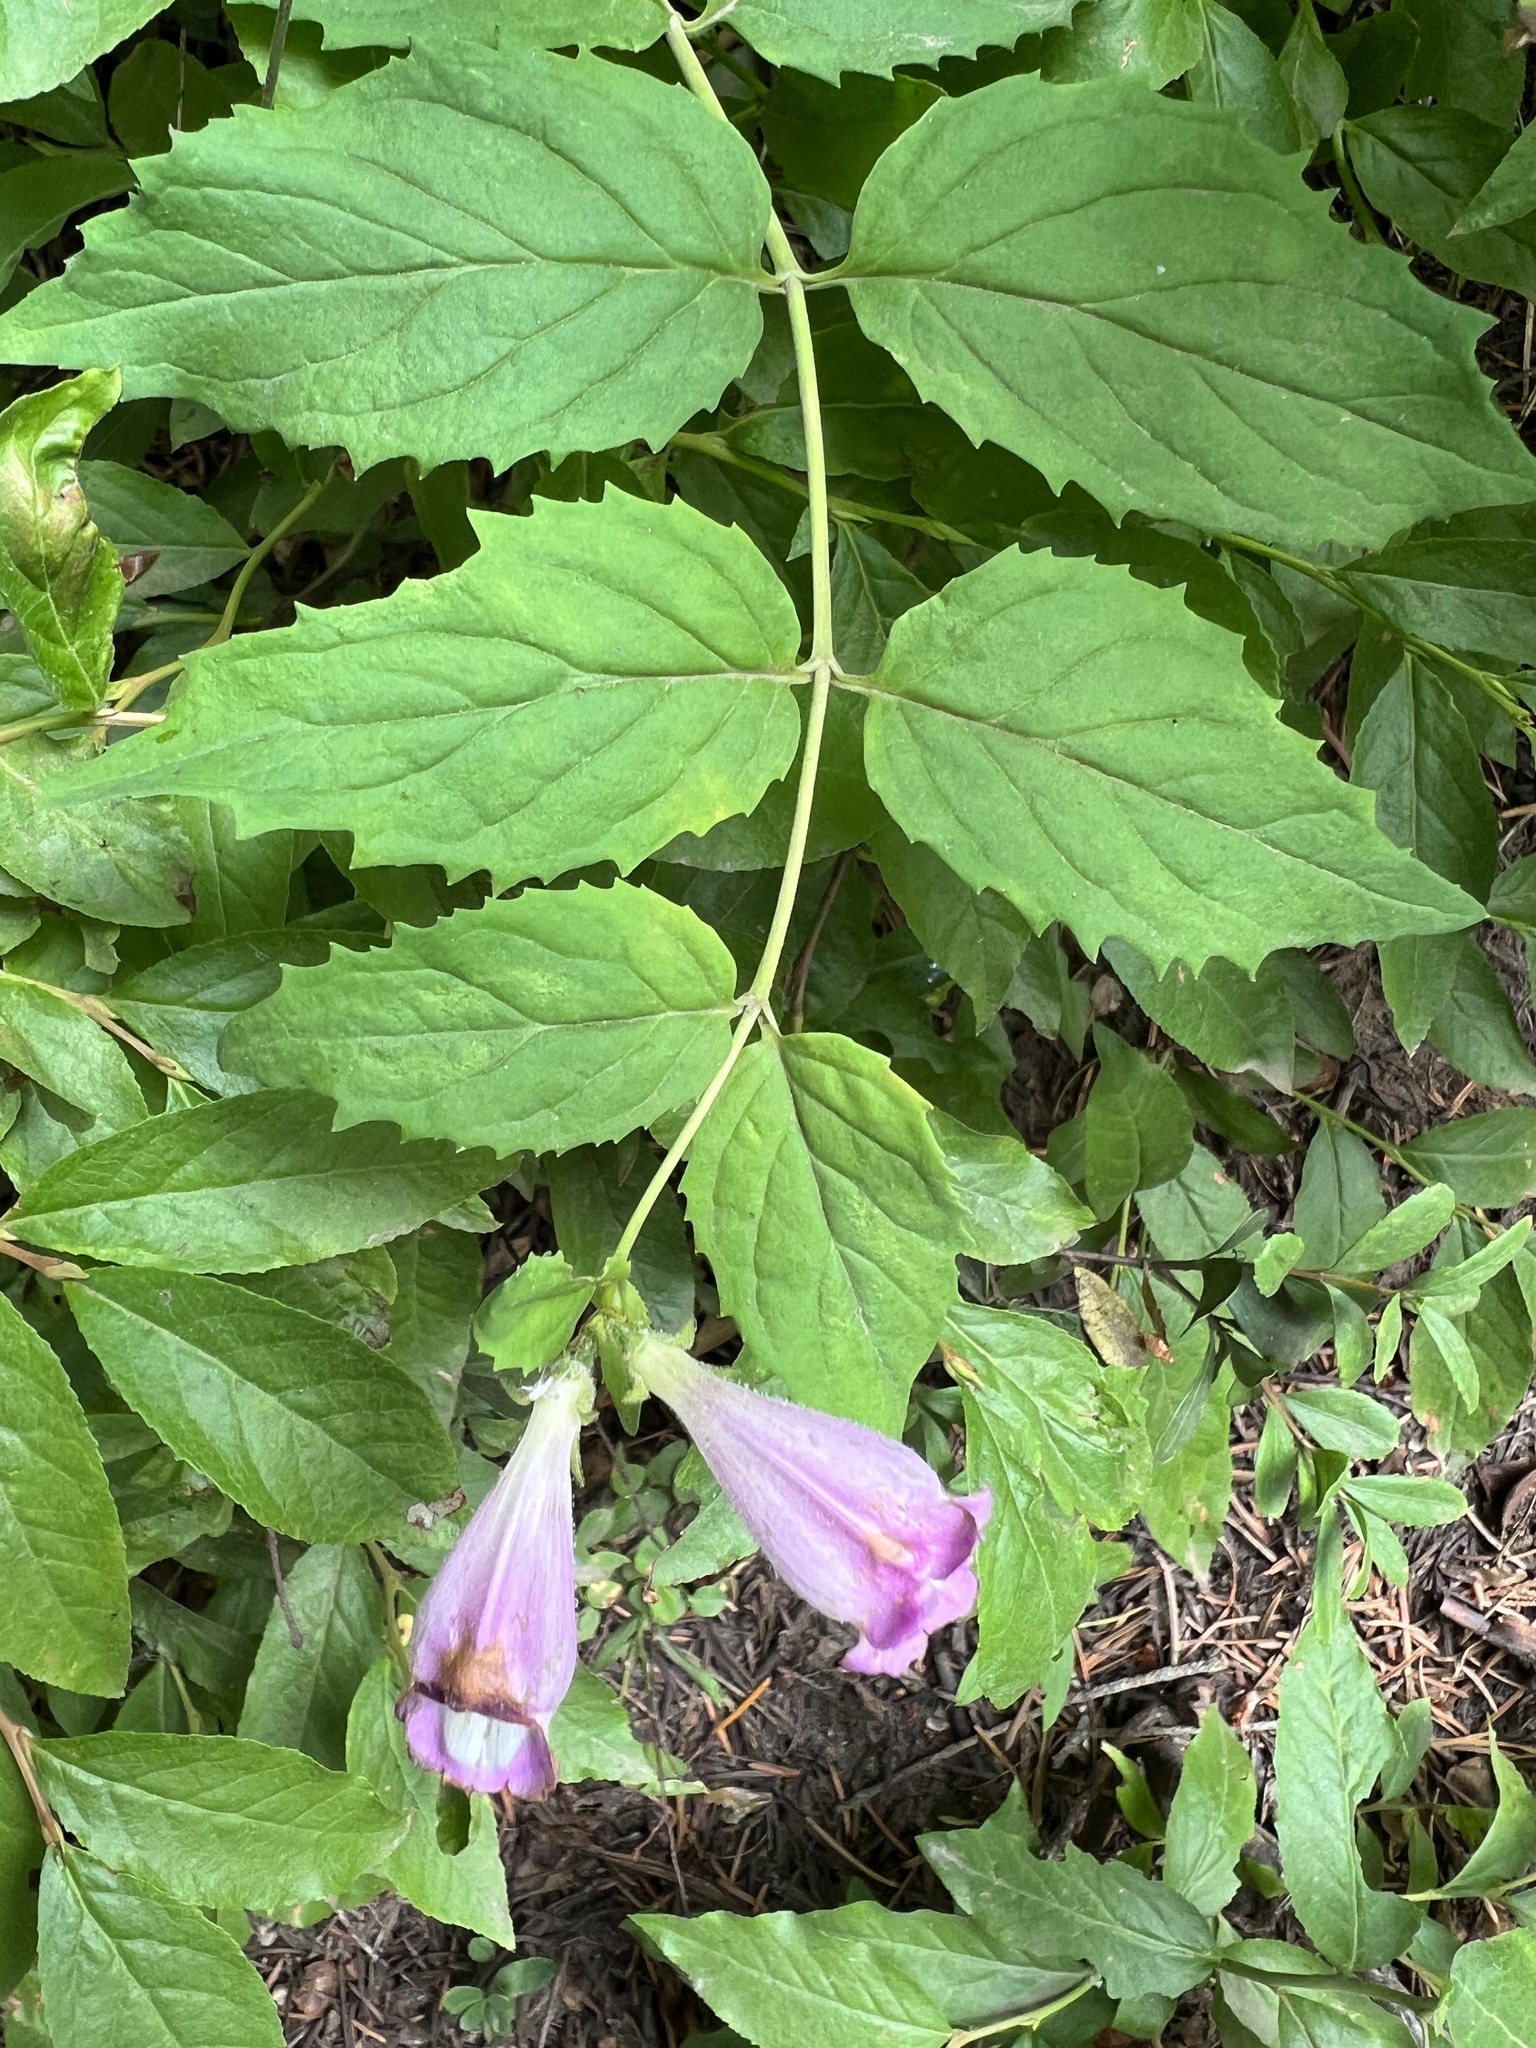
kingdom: Plantae
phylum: Tracheophyta
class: Magnoliopsida
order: Lamiales
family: Plantaginaceae
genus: Nothochelone
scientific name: Nothochelone nemorosa
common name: Woodland beardtongue
